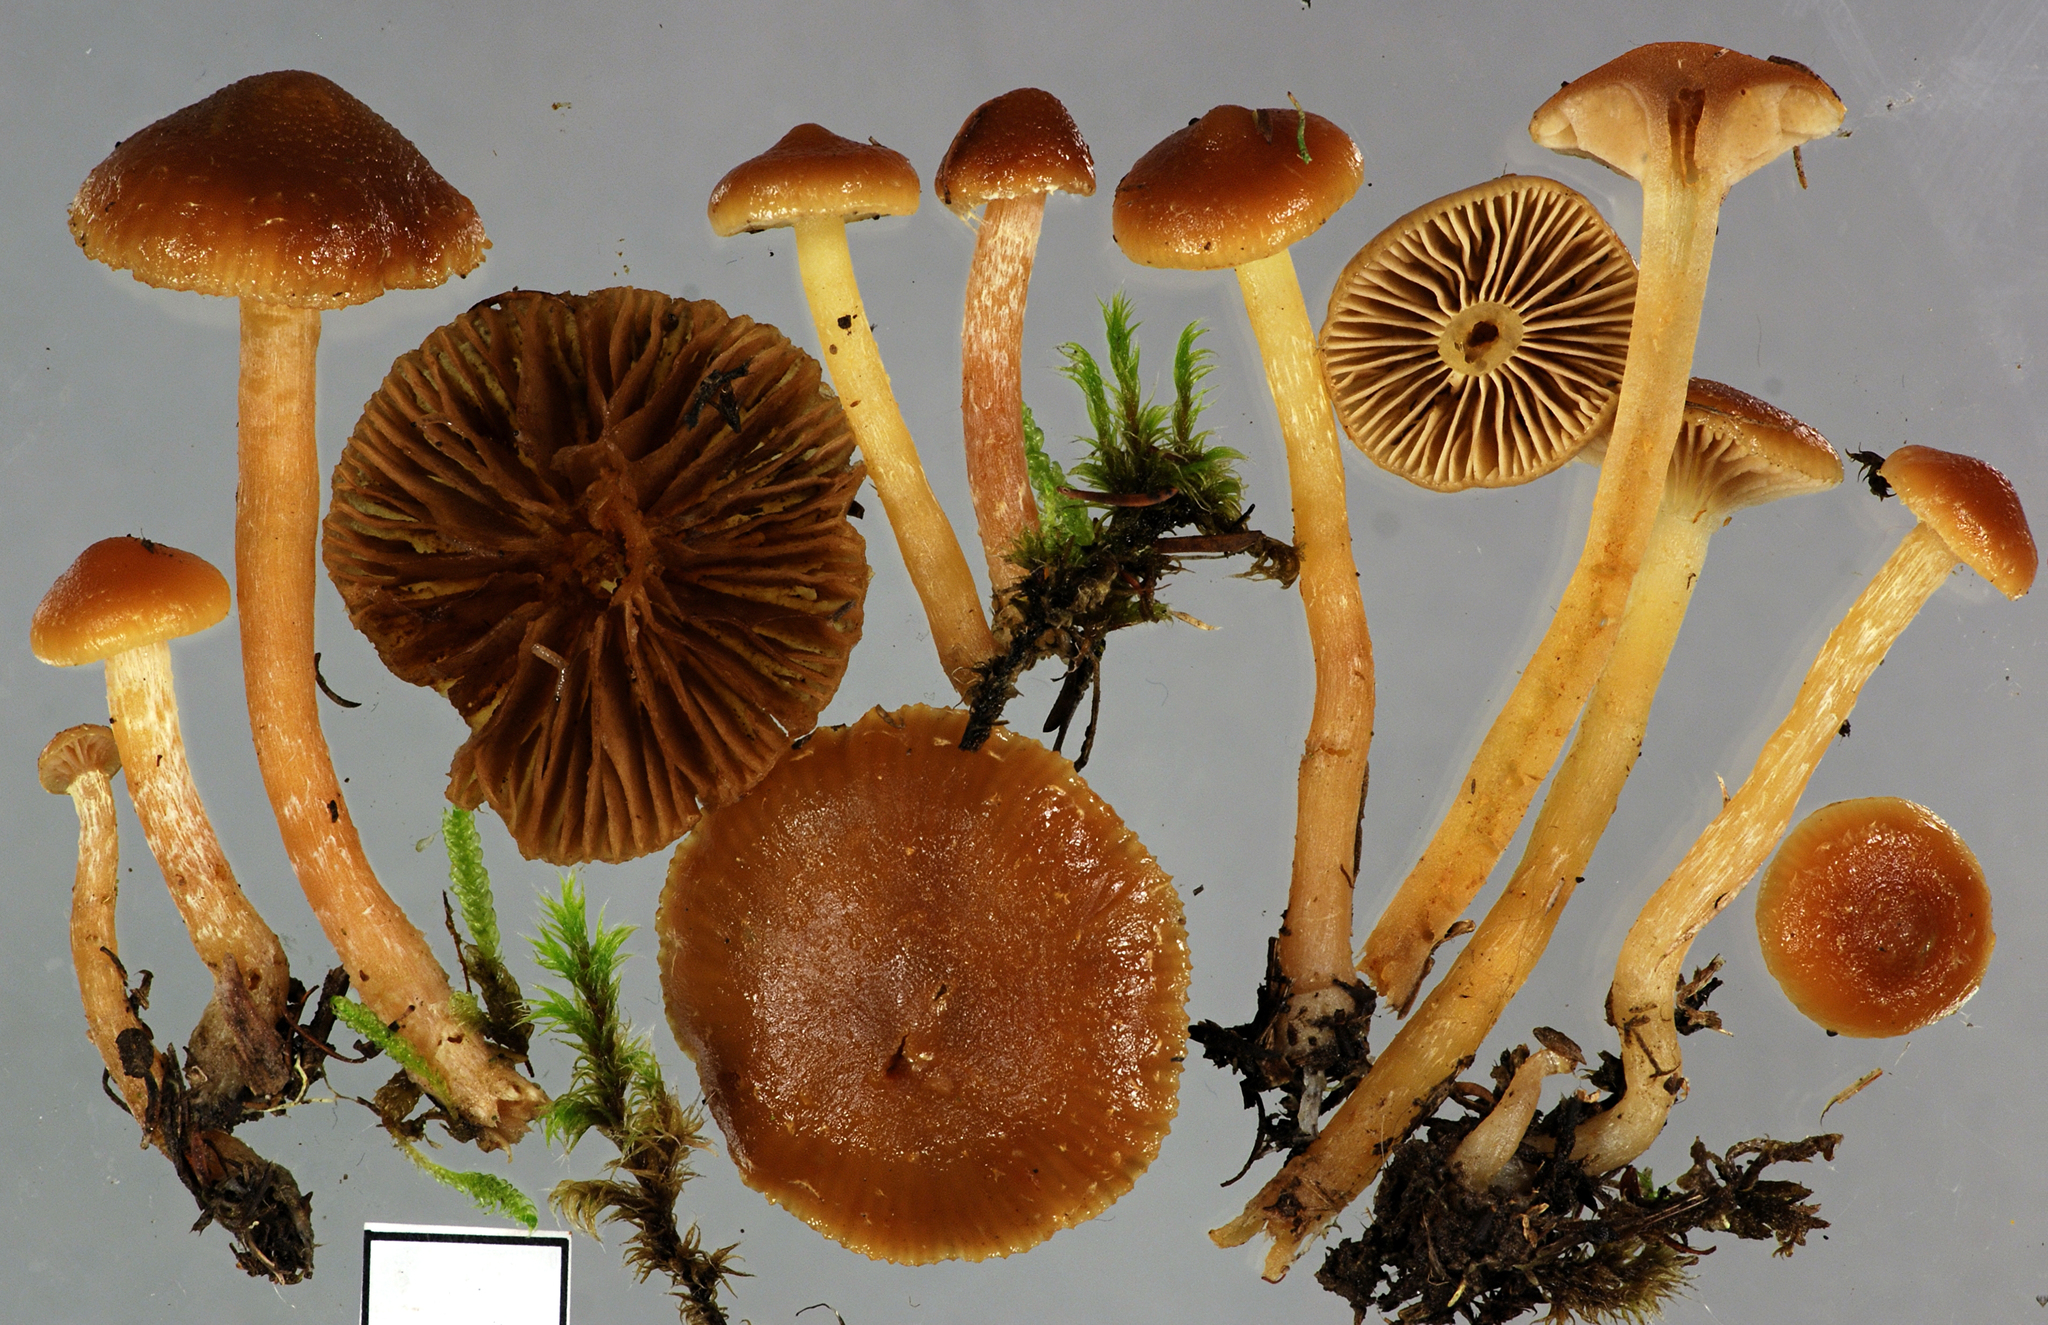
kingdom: Fungi
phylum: Basidiomycota
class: Agaricomycetes
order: Agaricales
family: Strophariaceae
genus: Pholiota
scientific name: Pholiota
